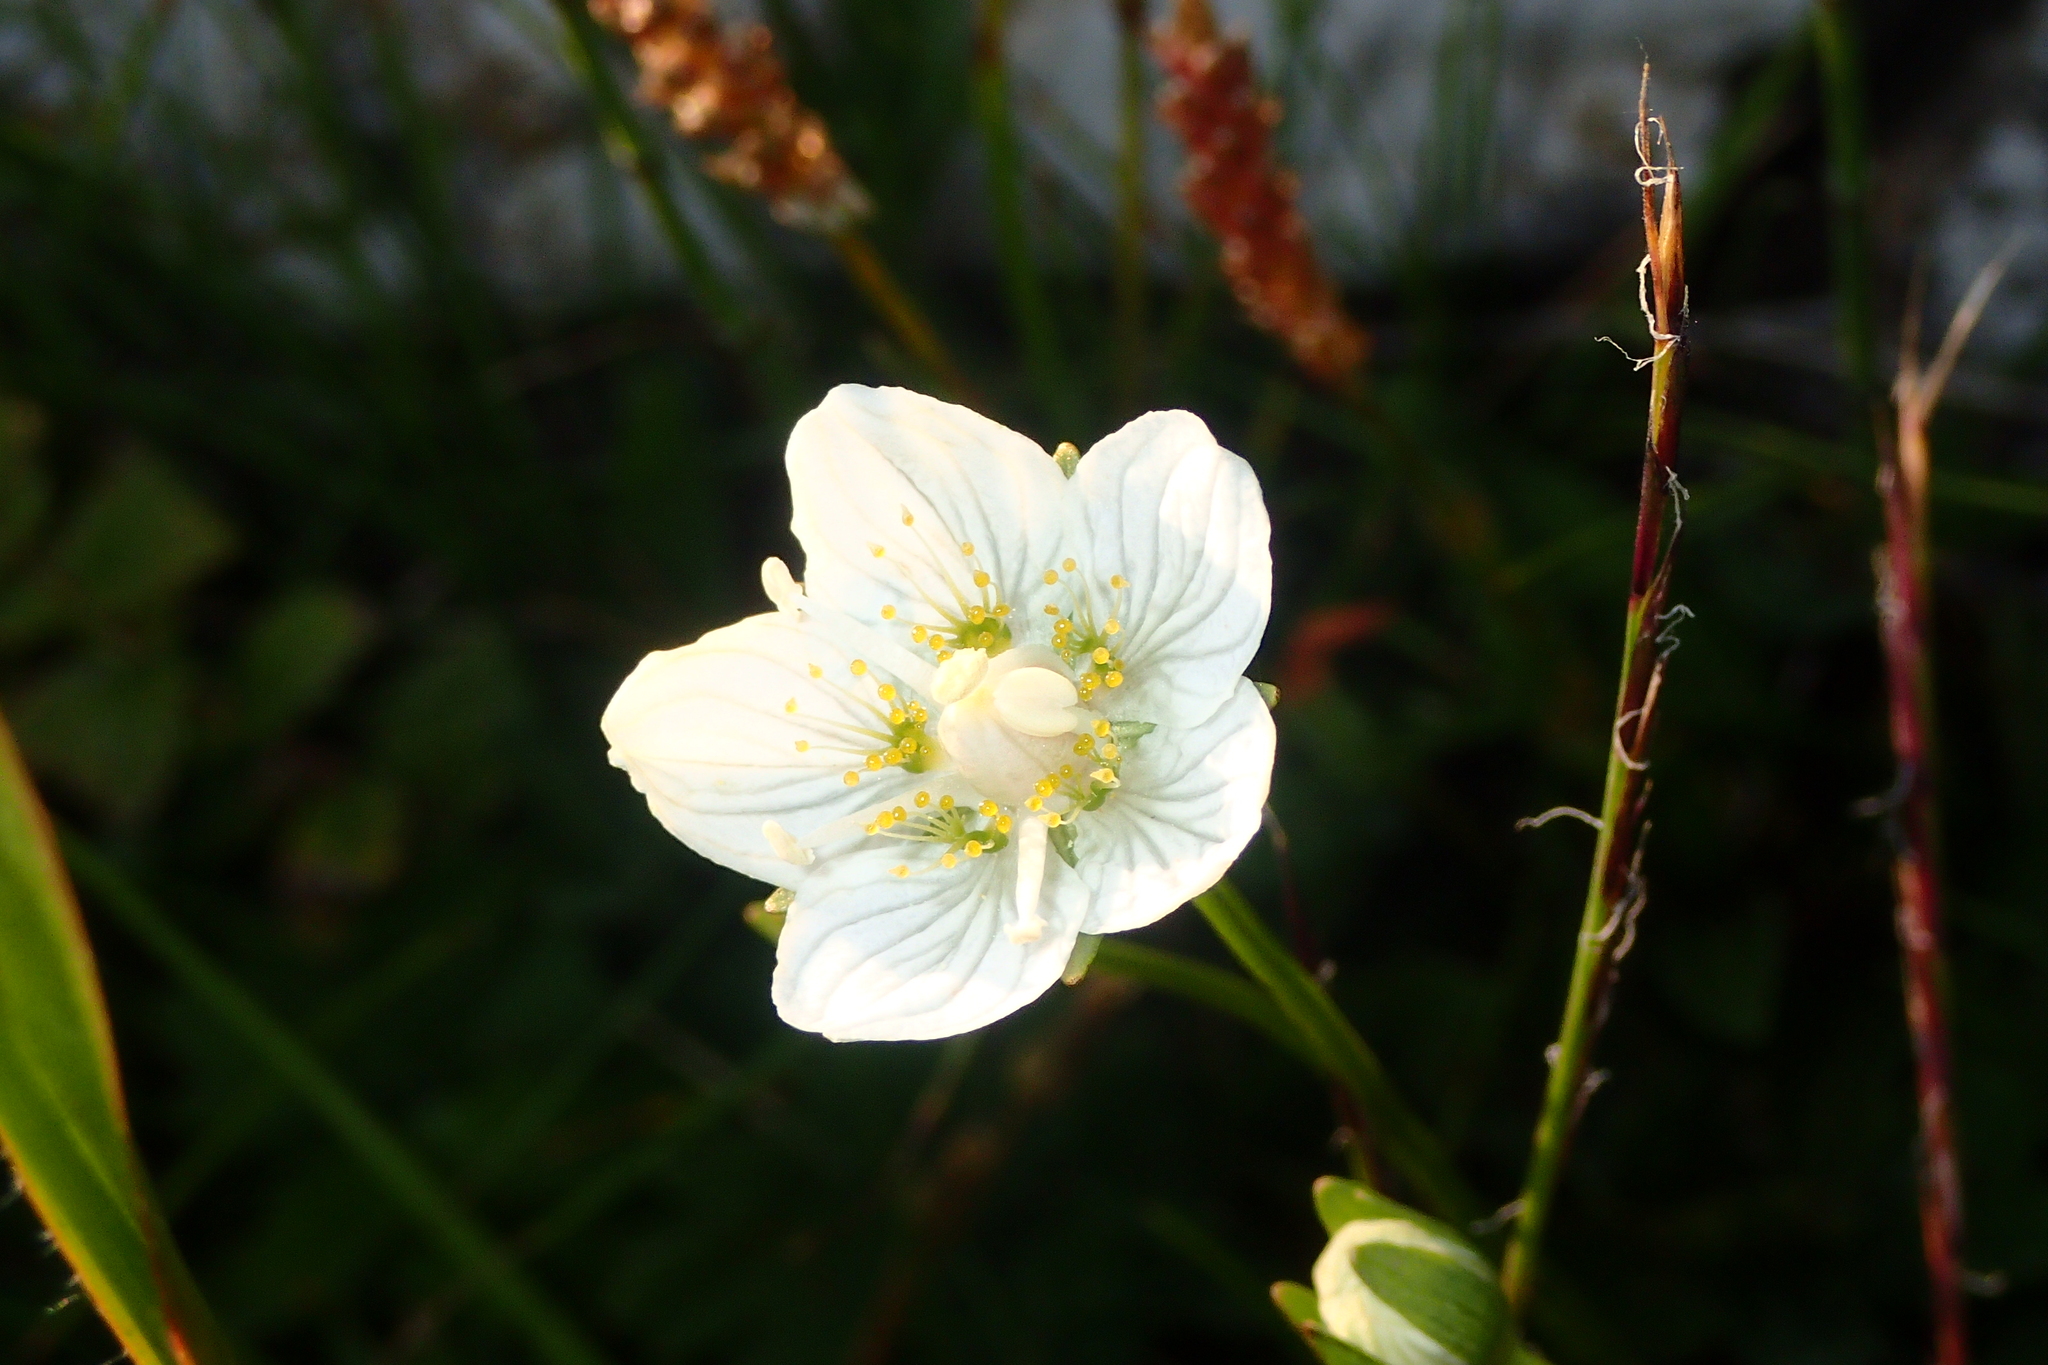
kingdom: Plantae
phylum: Tracheophyta
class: Magnoliopsida
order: Celastrales
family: Parnassiaceae
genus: Parnassia
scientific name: Parnassia palustris
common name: Grass-of-parnassus
